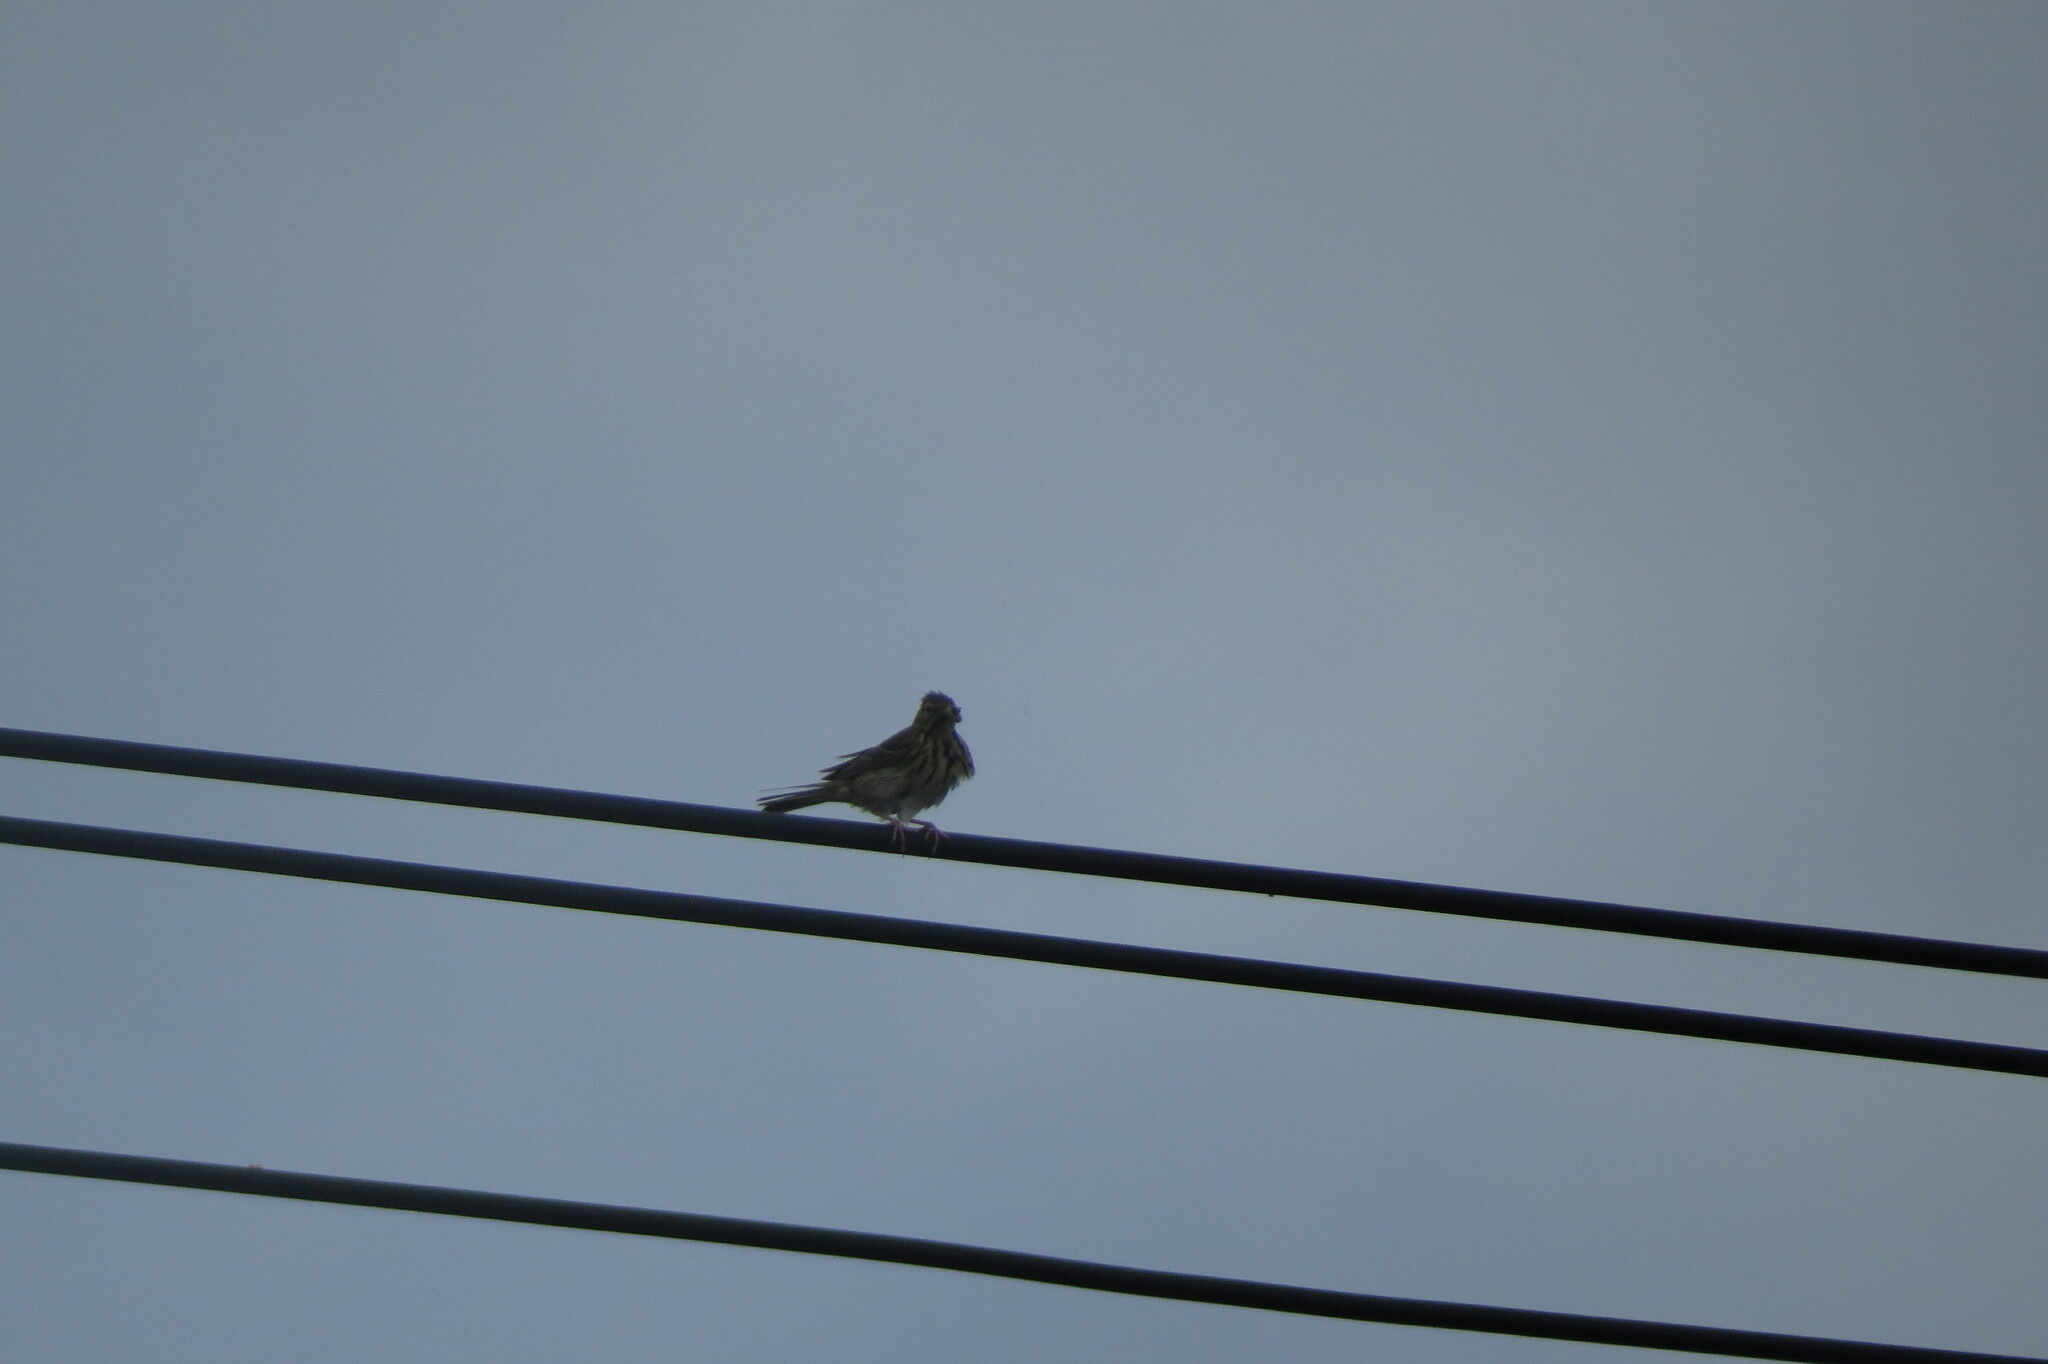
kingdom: Animalia
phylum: Chordata
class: Aves
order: Passeriformes
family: Motacillidae
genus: Anthus
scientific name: Anthus trivialis
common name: Tree pipit
